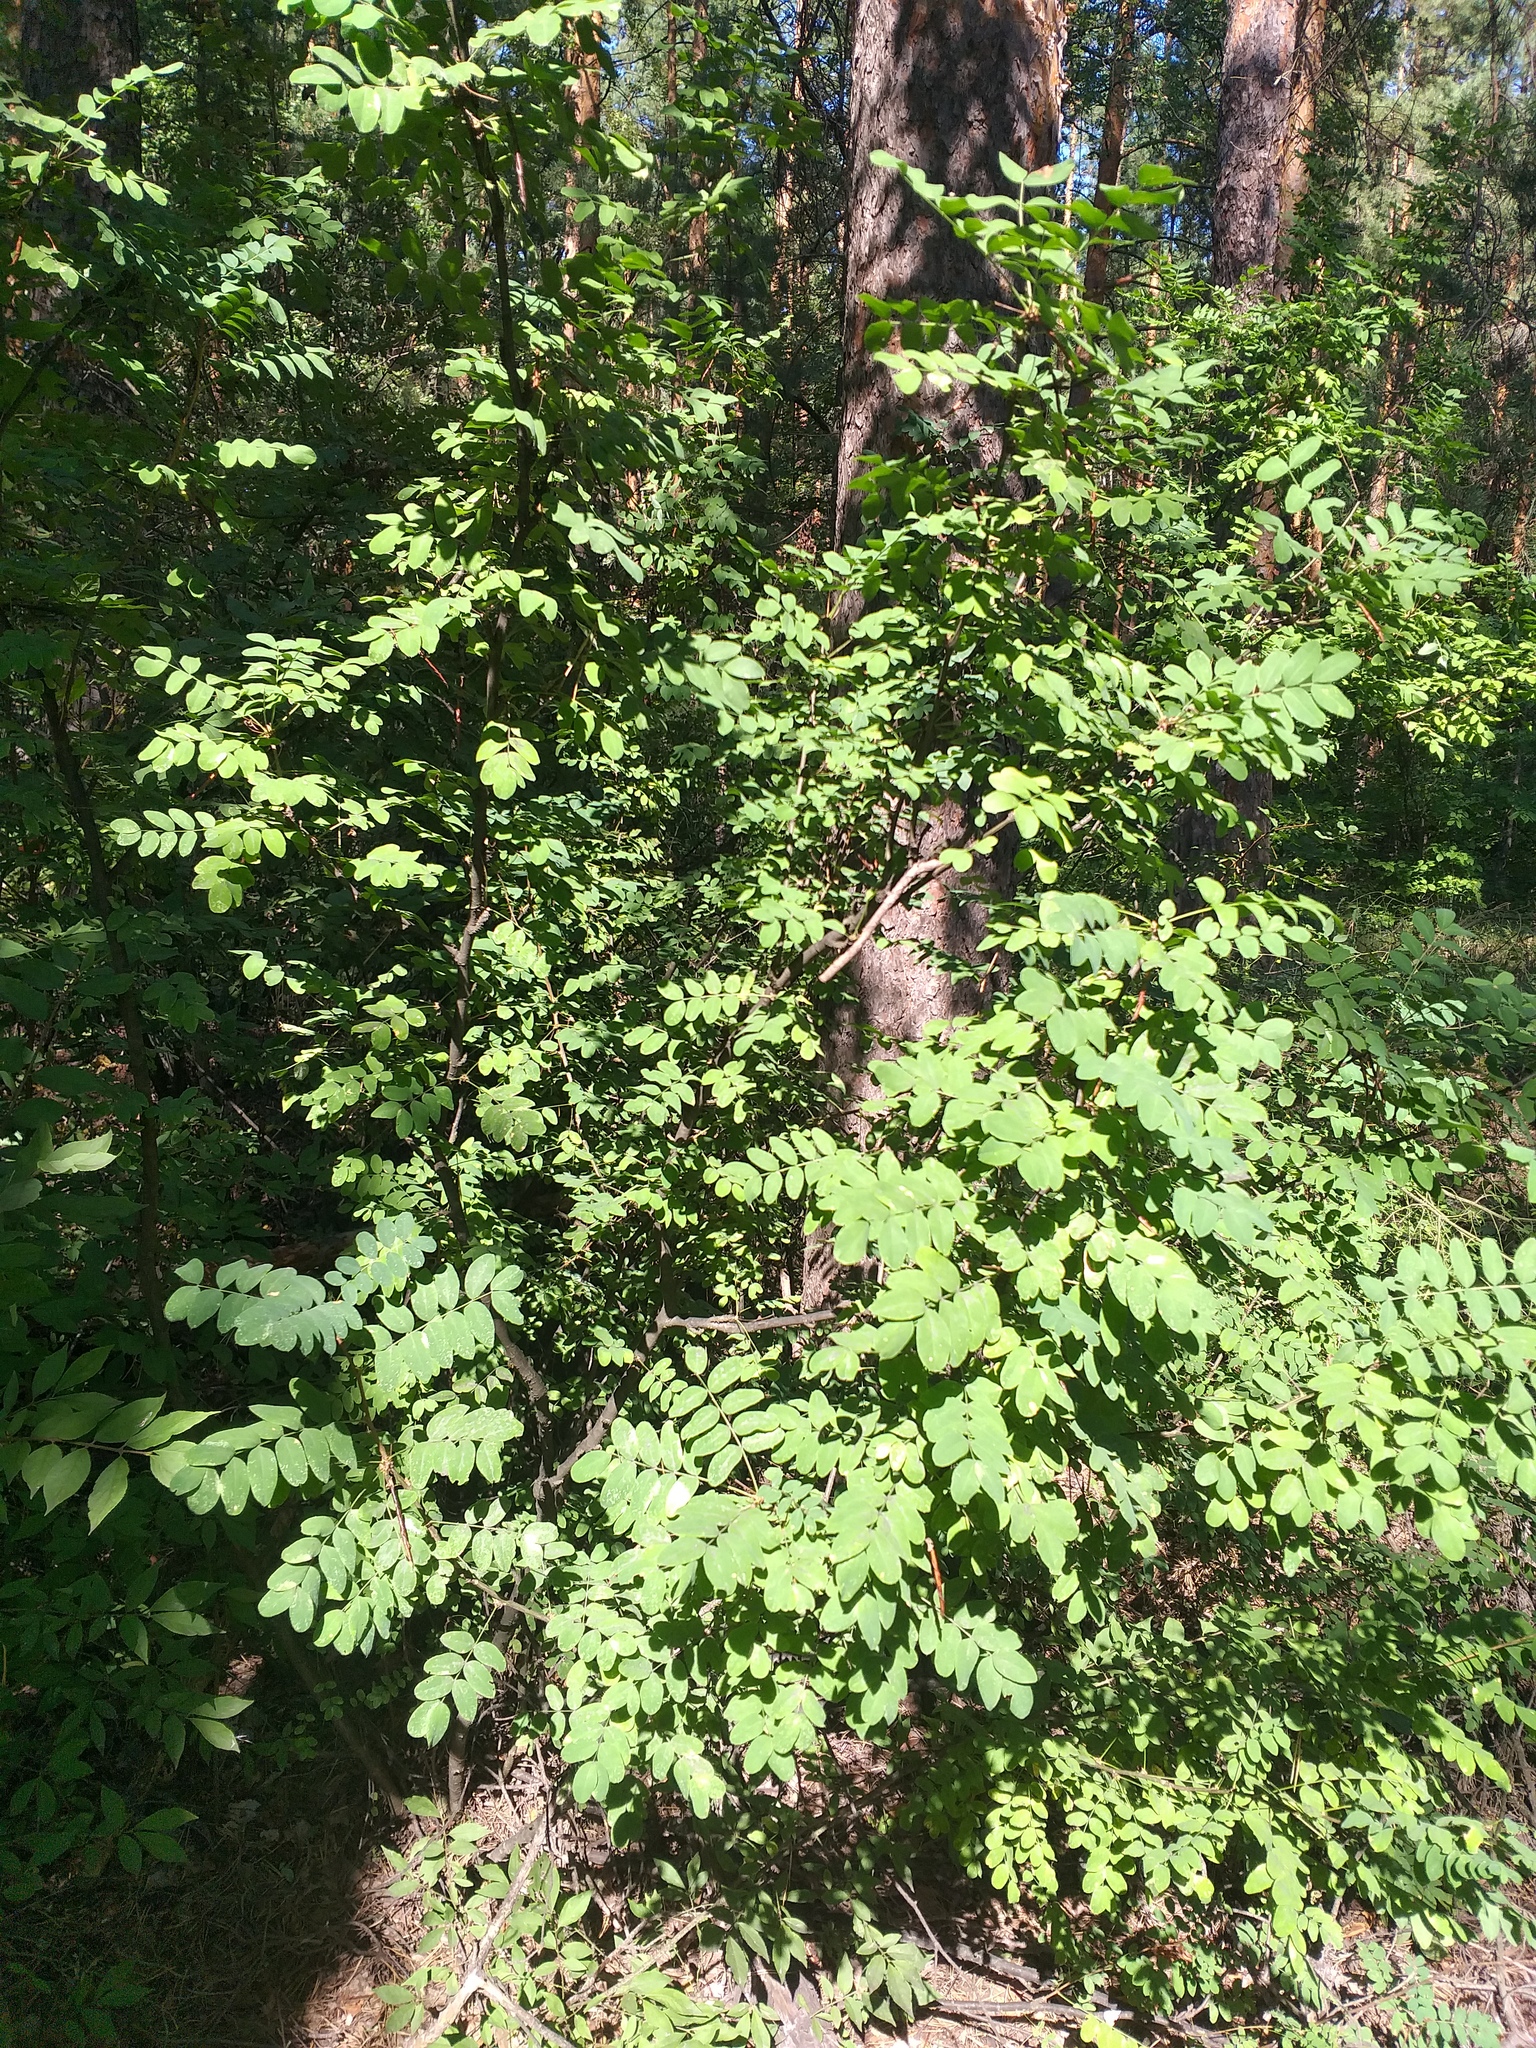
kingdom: Plantae
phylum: Tracheophyta
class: Magnoliopsida
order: Fabales
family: Fabaceae
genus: Caragana
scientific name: Caragana arborescens
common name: Siberian peashrub
